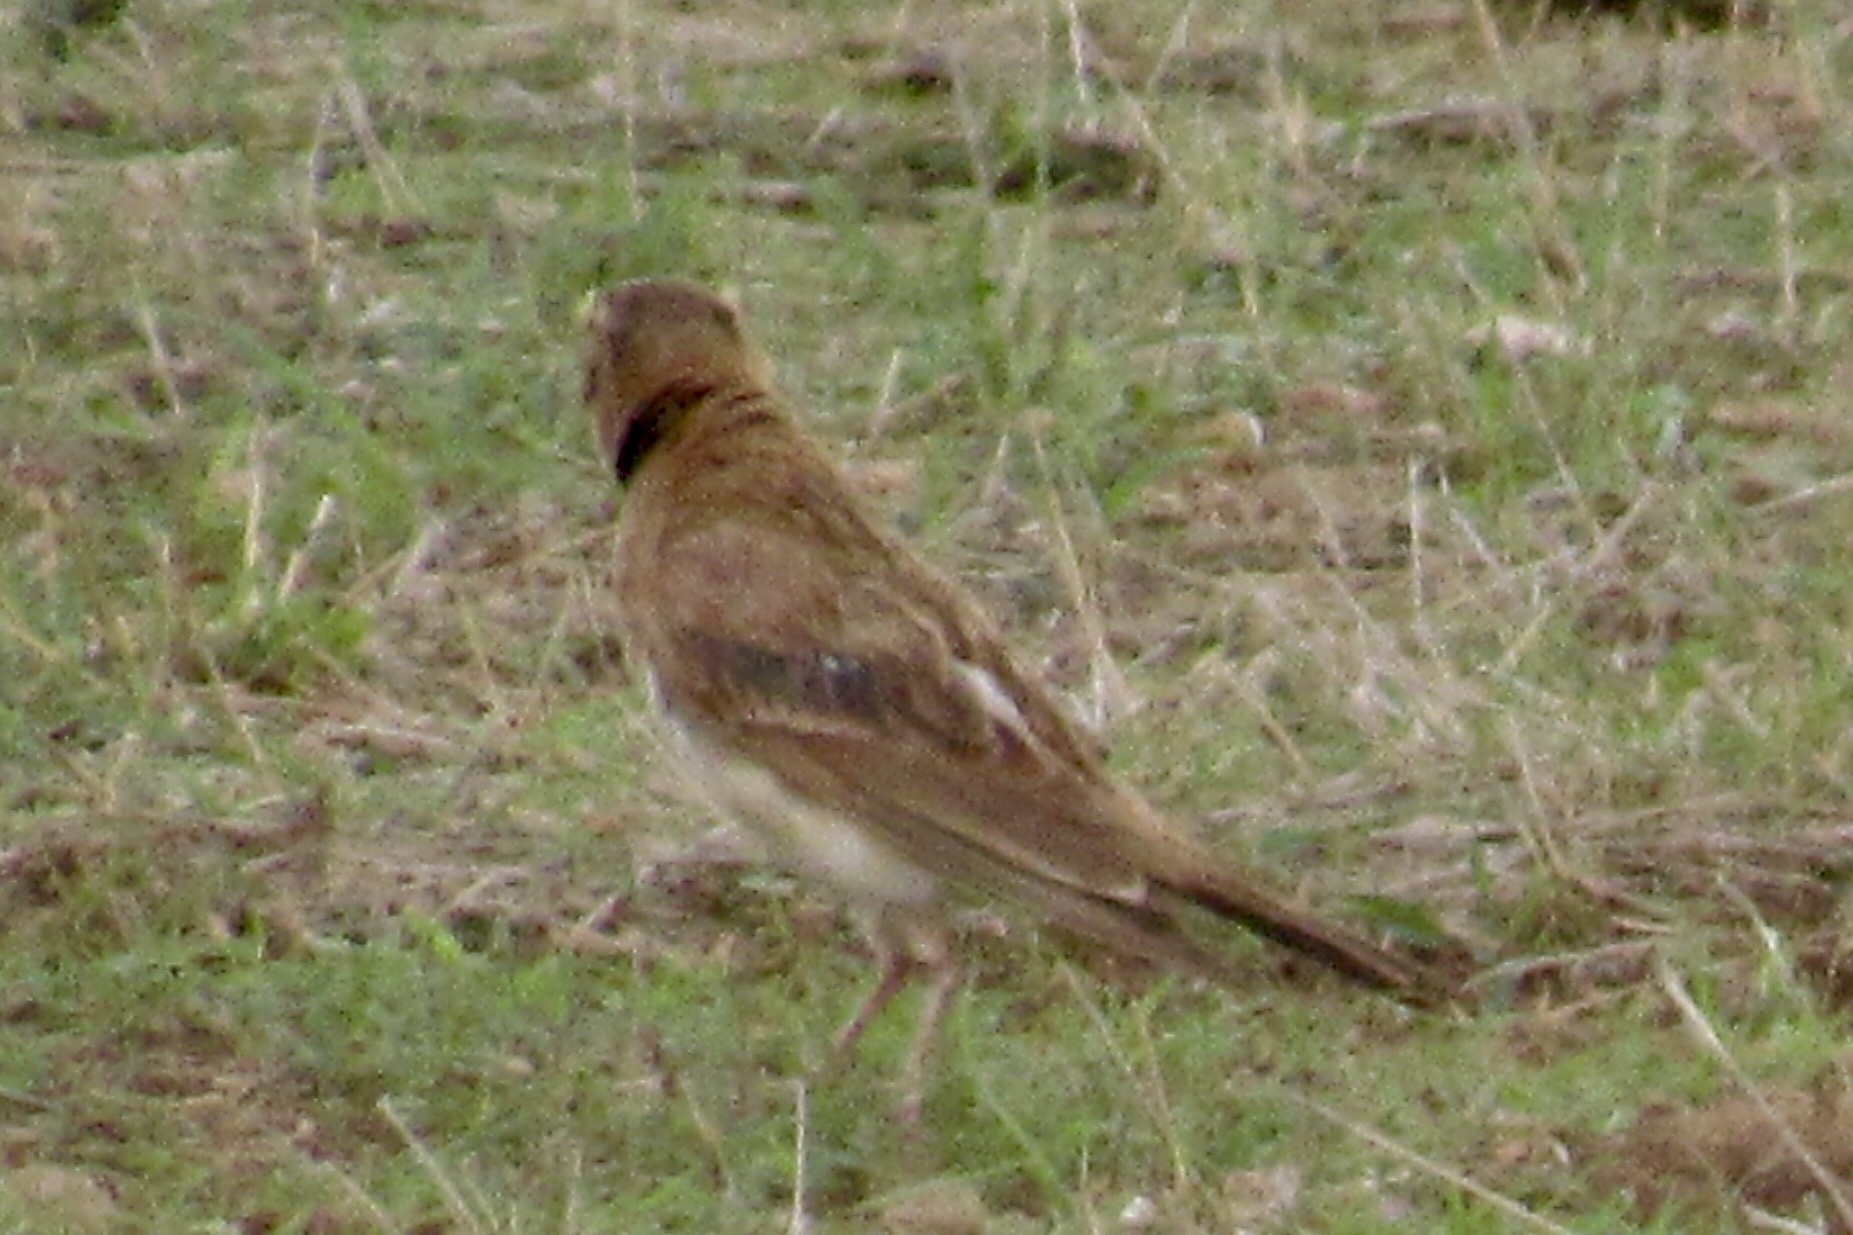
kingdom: Animalia
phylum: Chordata
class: Aves
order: Passeriformes
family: Alaudidae
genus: Eremophila
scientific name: Eremophila alpestris
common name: Horned lark
